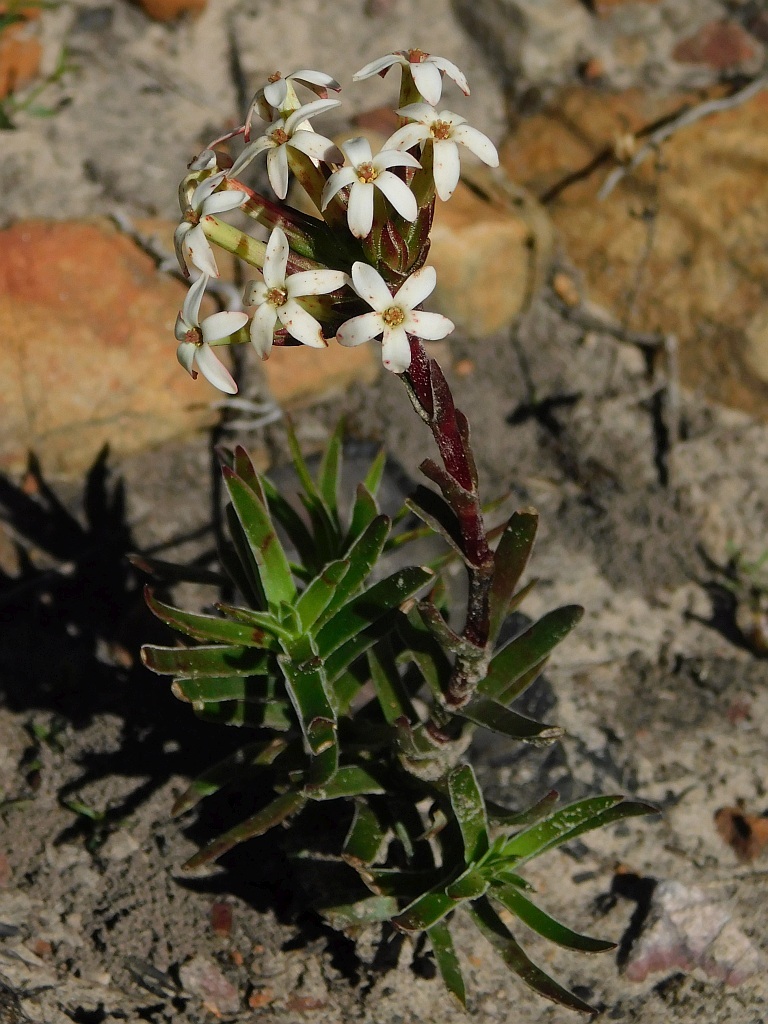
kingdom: Plantae
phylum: Tracheophyta
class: Magnoliopsida
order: Saxifragales
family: Crassulaceae
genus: Crassula
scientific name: Crassula fascicularis
